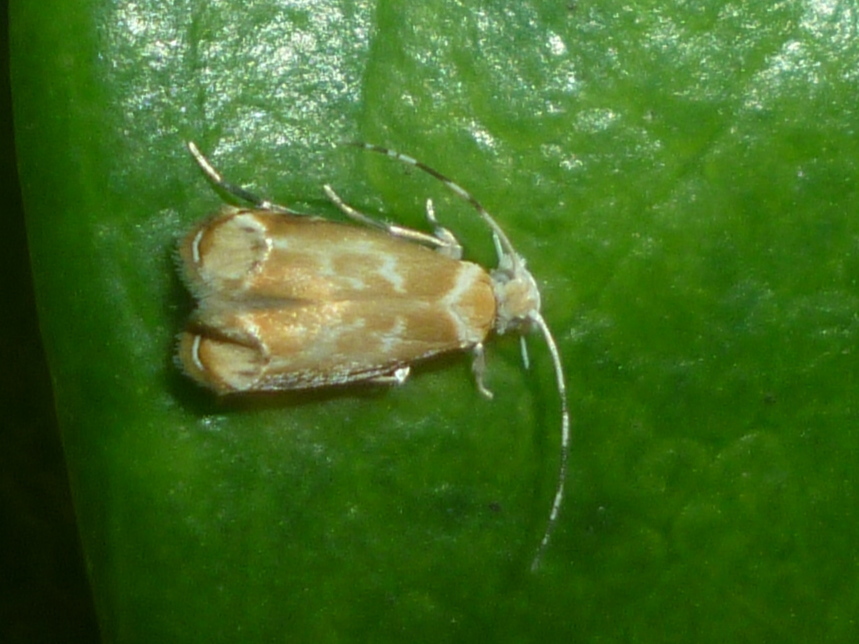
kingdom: Animalia
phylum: Arthropoda
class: Insecta
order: Lepidoptera
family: Dryadaulidae
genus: Dryadaula
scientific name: Dryadaula terpsichorella
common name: Dancing moth
